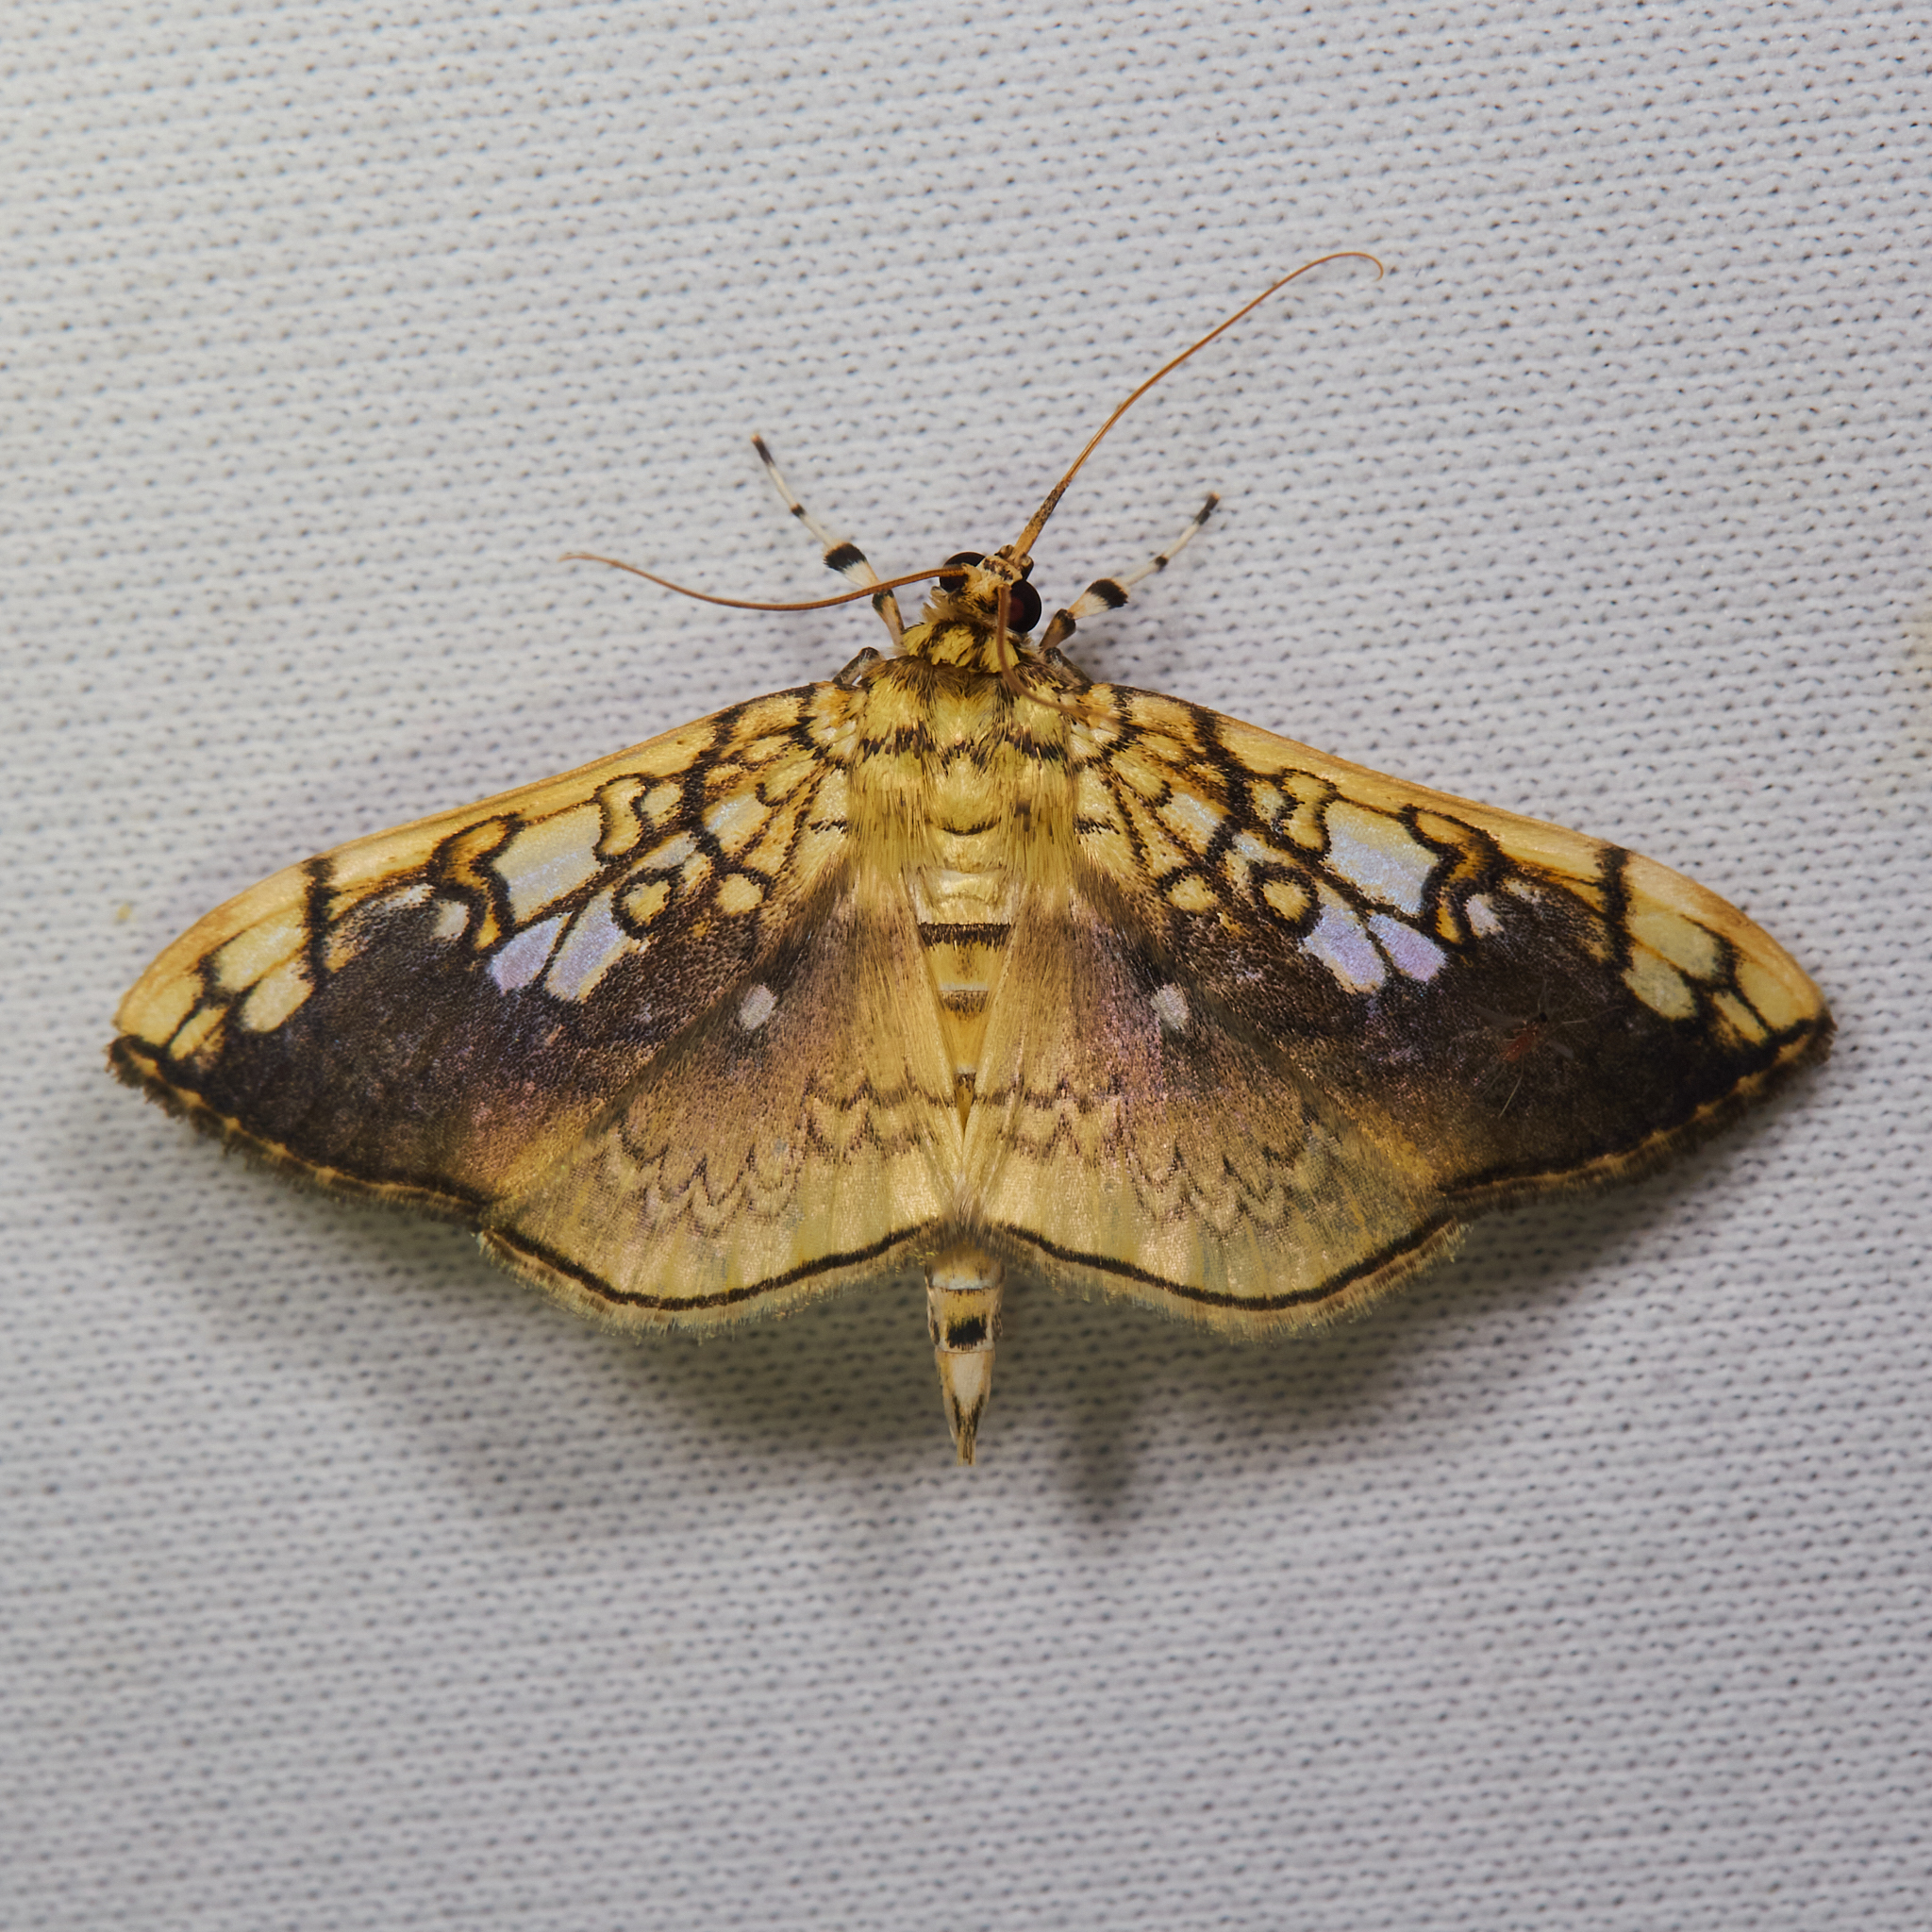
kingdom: Animalia
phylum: Arthropoda
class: Insecta
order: Lepidoptera
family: Crambidae
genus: Pantographa
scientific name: Pantographa limata
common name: Basswood leafroller moth
